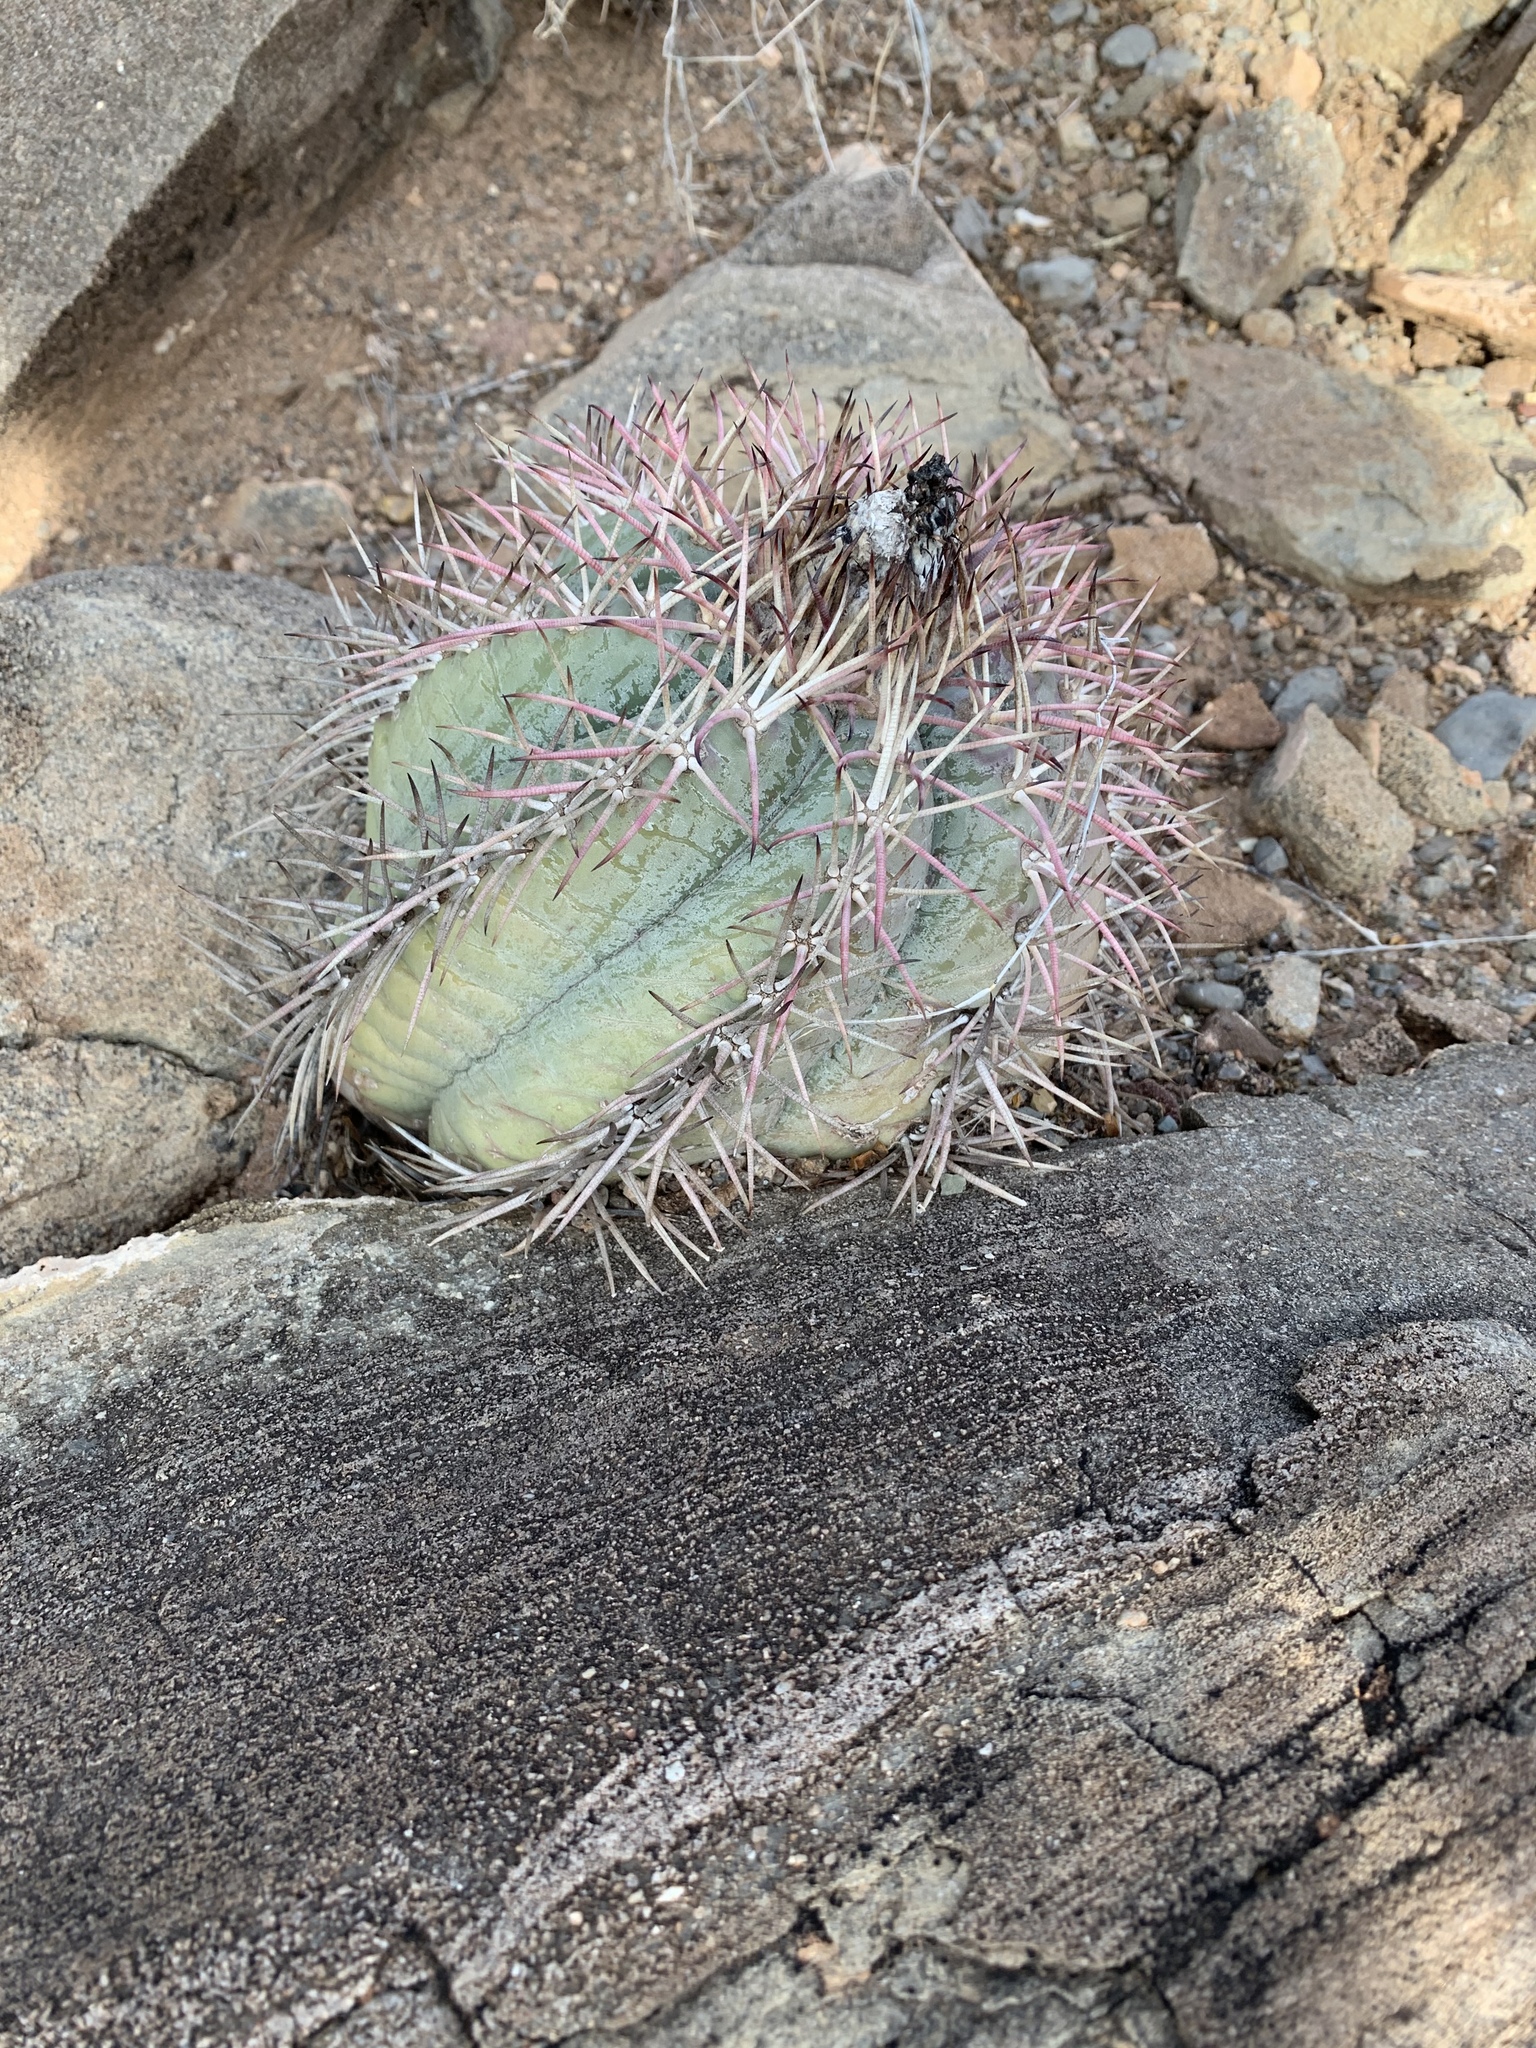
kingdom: Plantae
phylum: Tracheophyta
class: Magnoliopsida
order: Caryophyllales
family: Cactaceae
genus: Echinocactus
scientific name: Echinocactus horizonthalonius
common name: Devilshead
